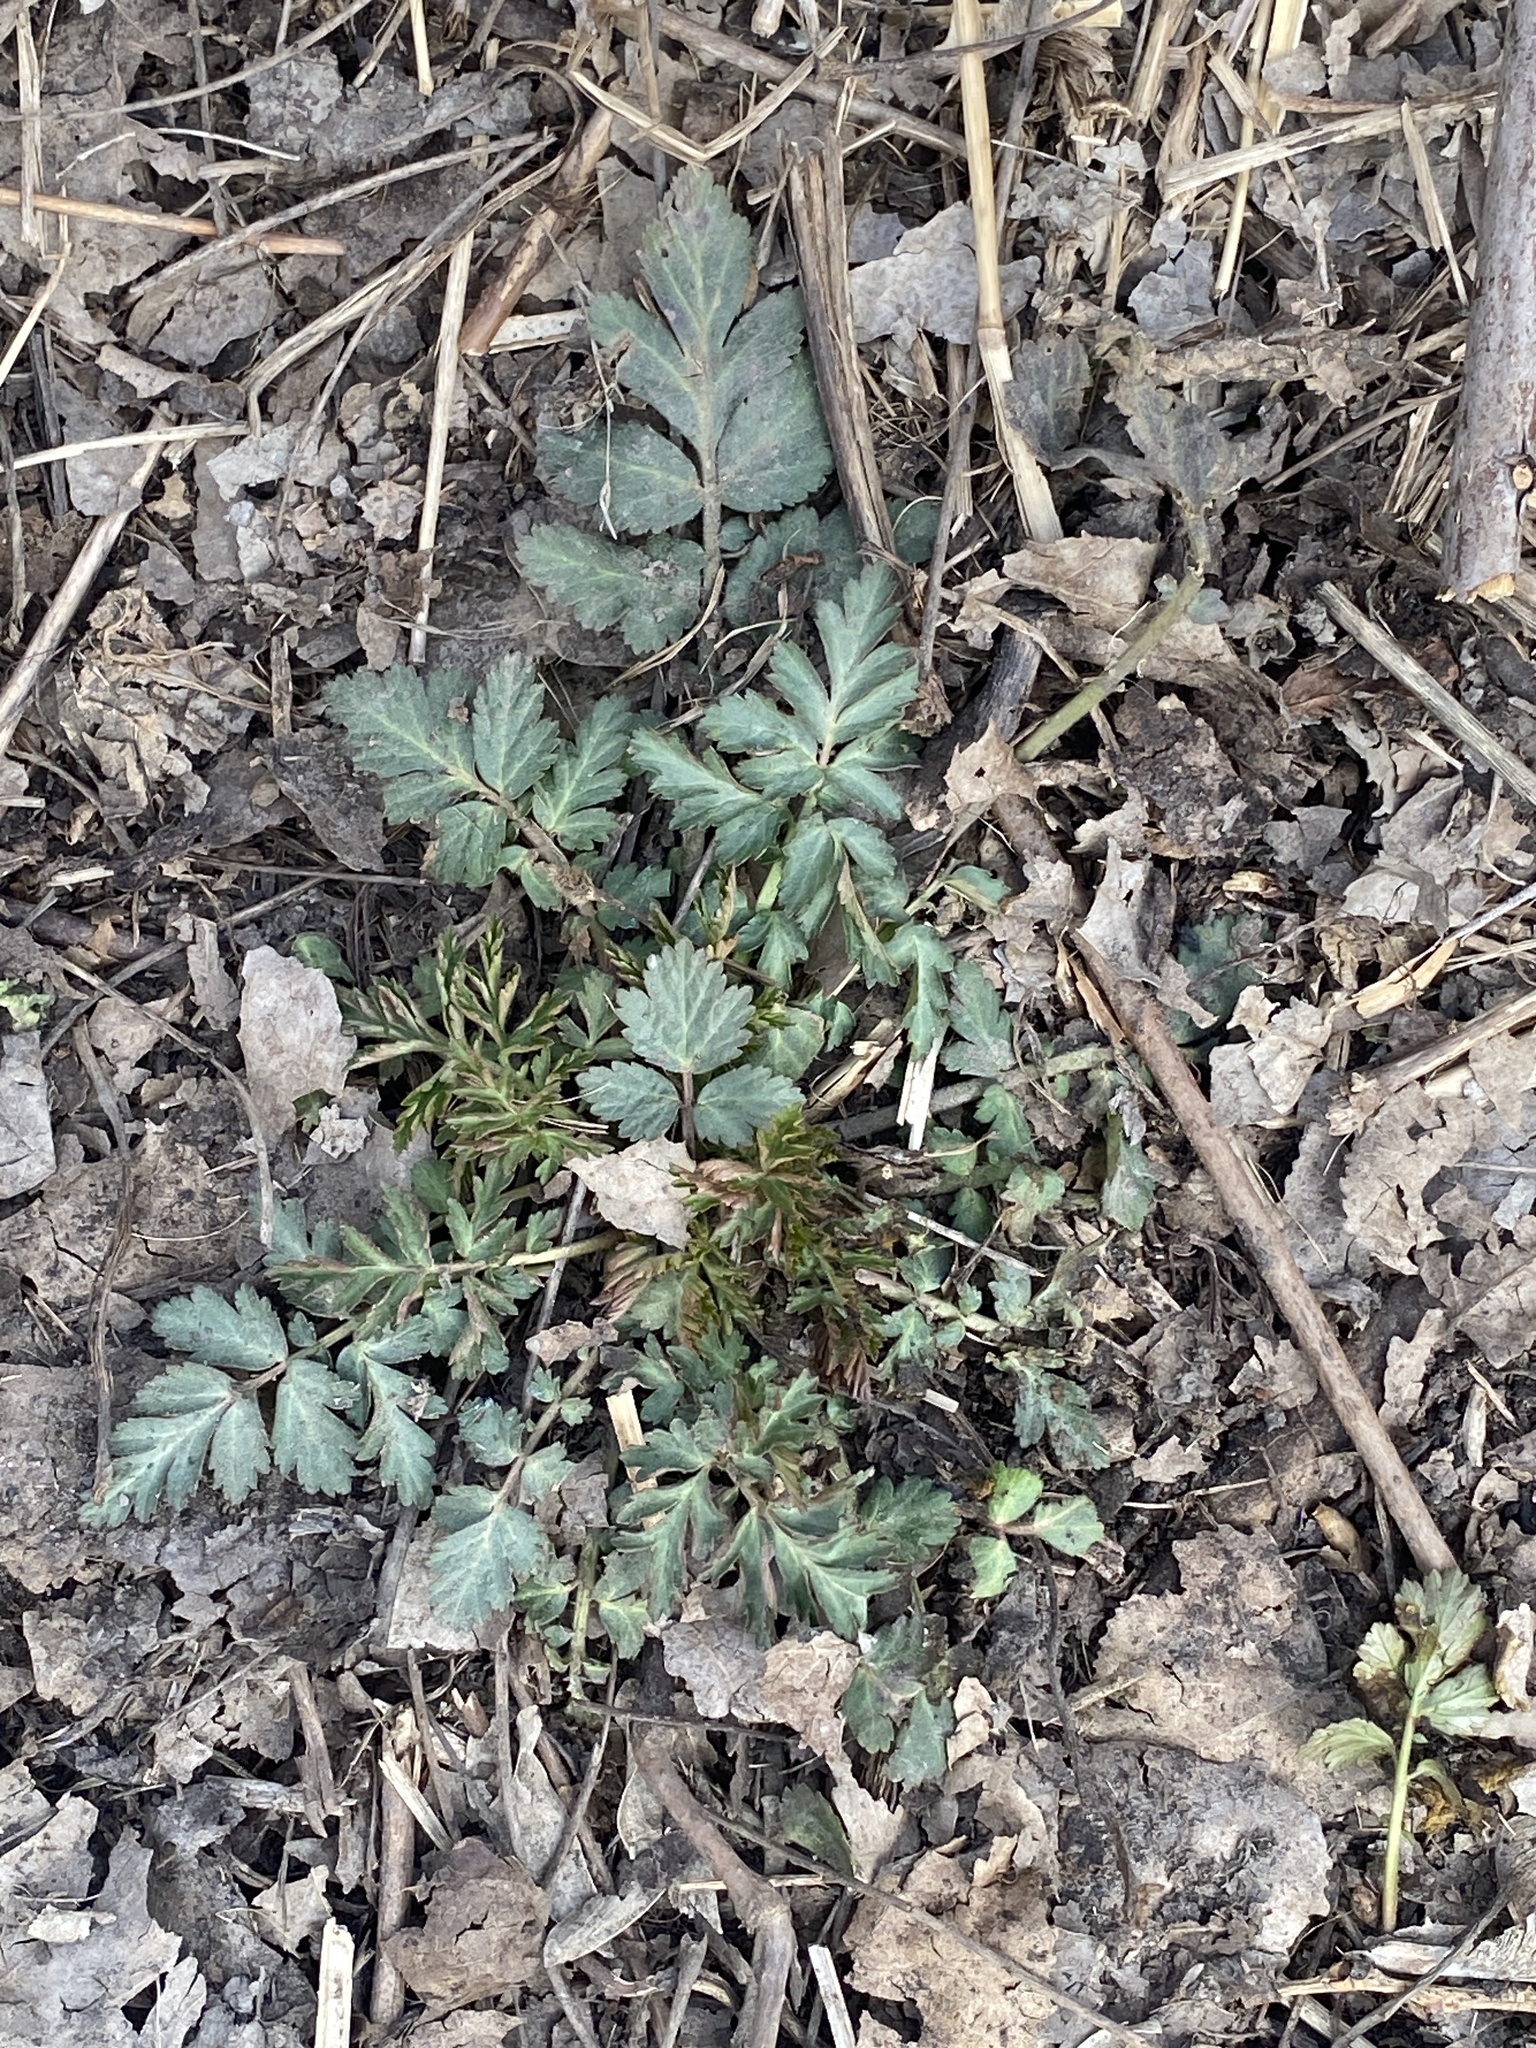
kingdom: Plantae
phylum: Tracheophyta
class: Magnoliopsida
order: Rosales
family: Rosaceae
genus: Geum
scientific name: Geum canadense
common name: White avens
